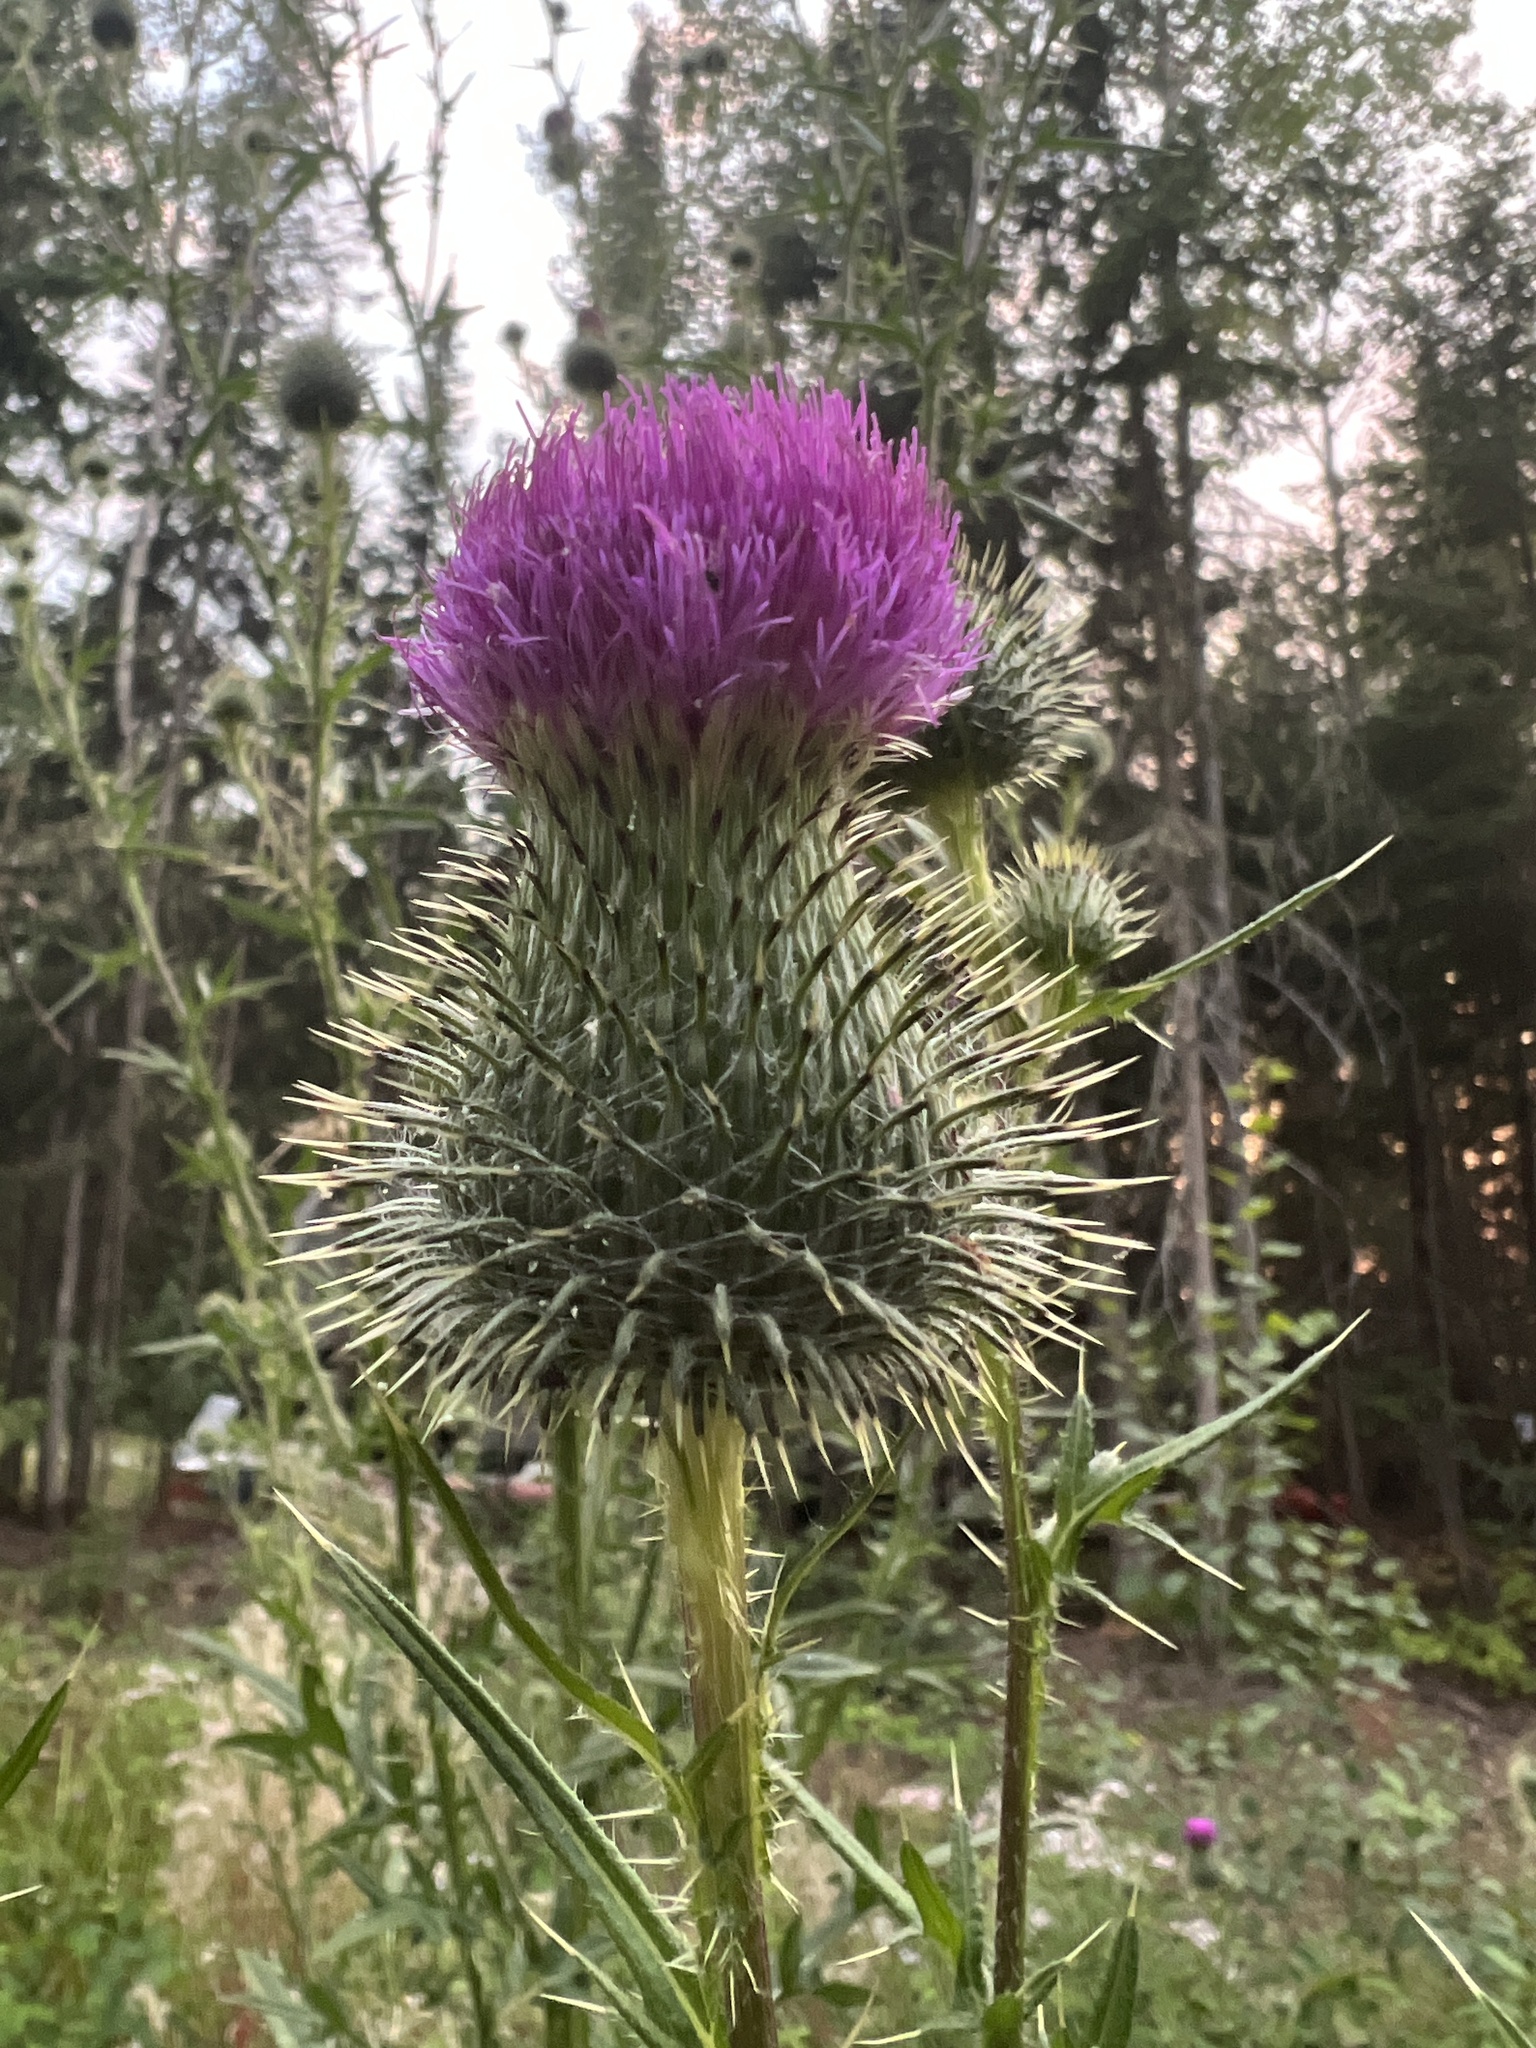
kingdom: Plantae
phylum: Tracheophyta
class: Magnoliopsida
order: Asterales
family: Asteraceae
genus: Cirsium
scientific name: Cirsium vulgare
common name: Bull thistle
